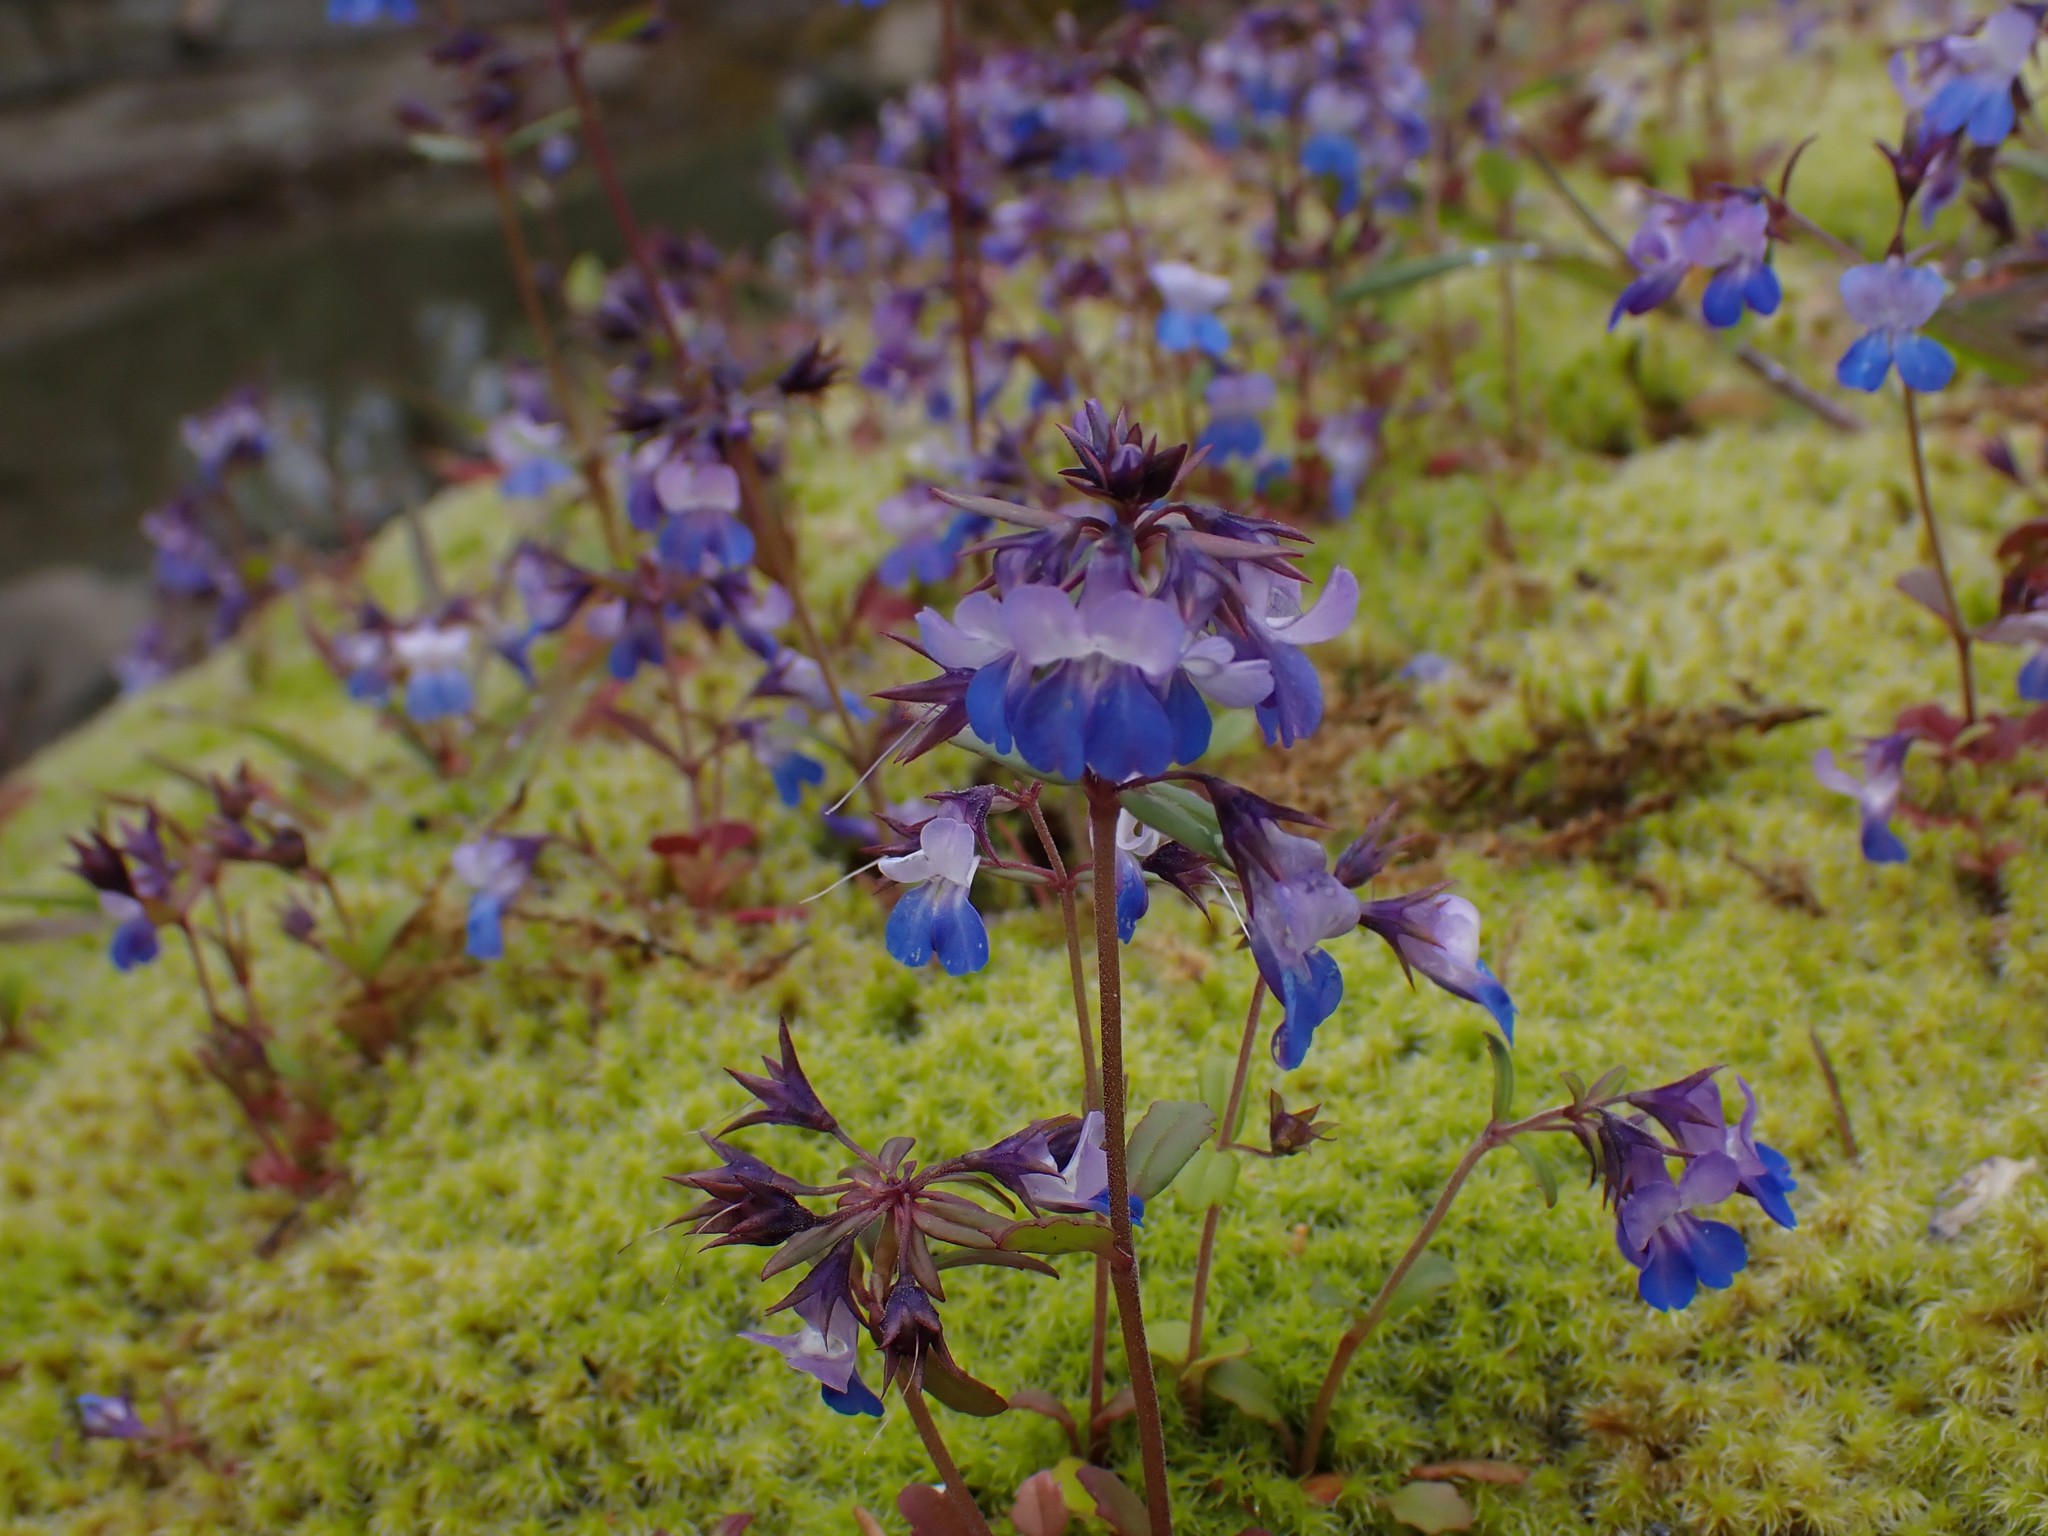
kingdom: Plantae
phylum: Tracheophyta
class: Magnoliopsida
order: Lamiales
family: Plantaginaceae
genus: Collinsia
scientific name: Collinsia grandiflora
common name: Large-flower blue-eyed-mary
